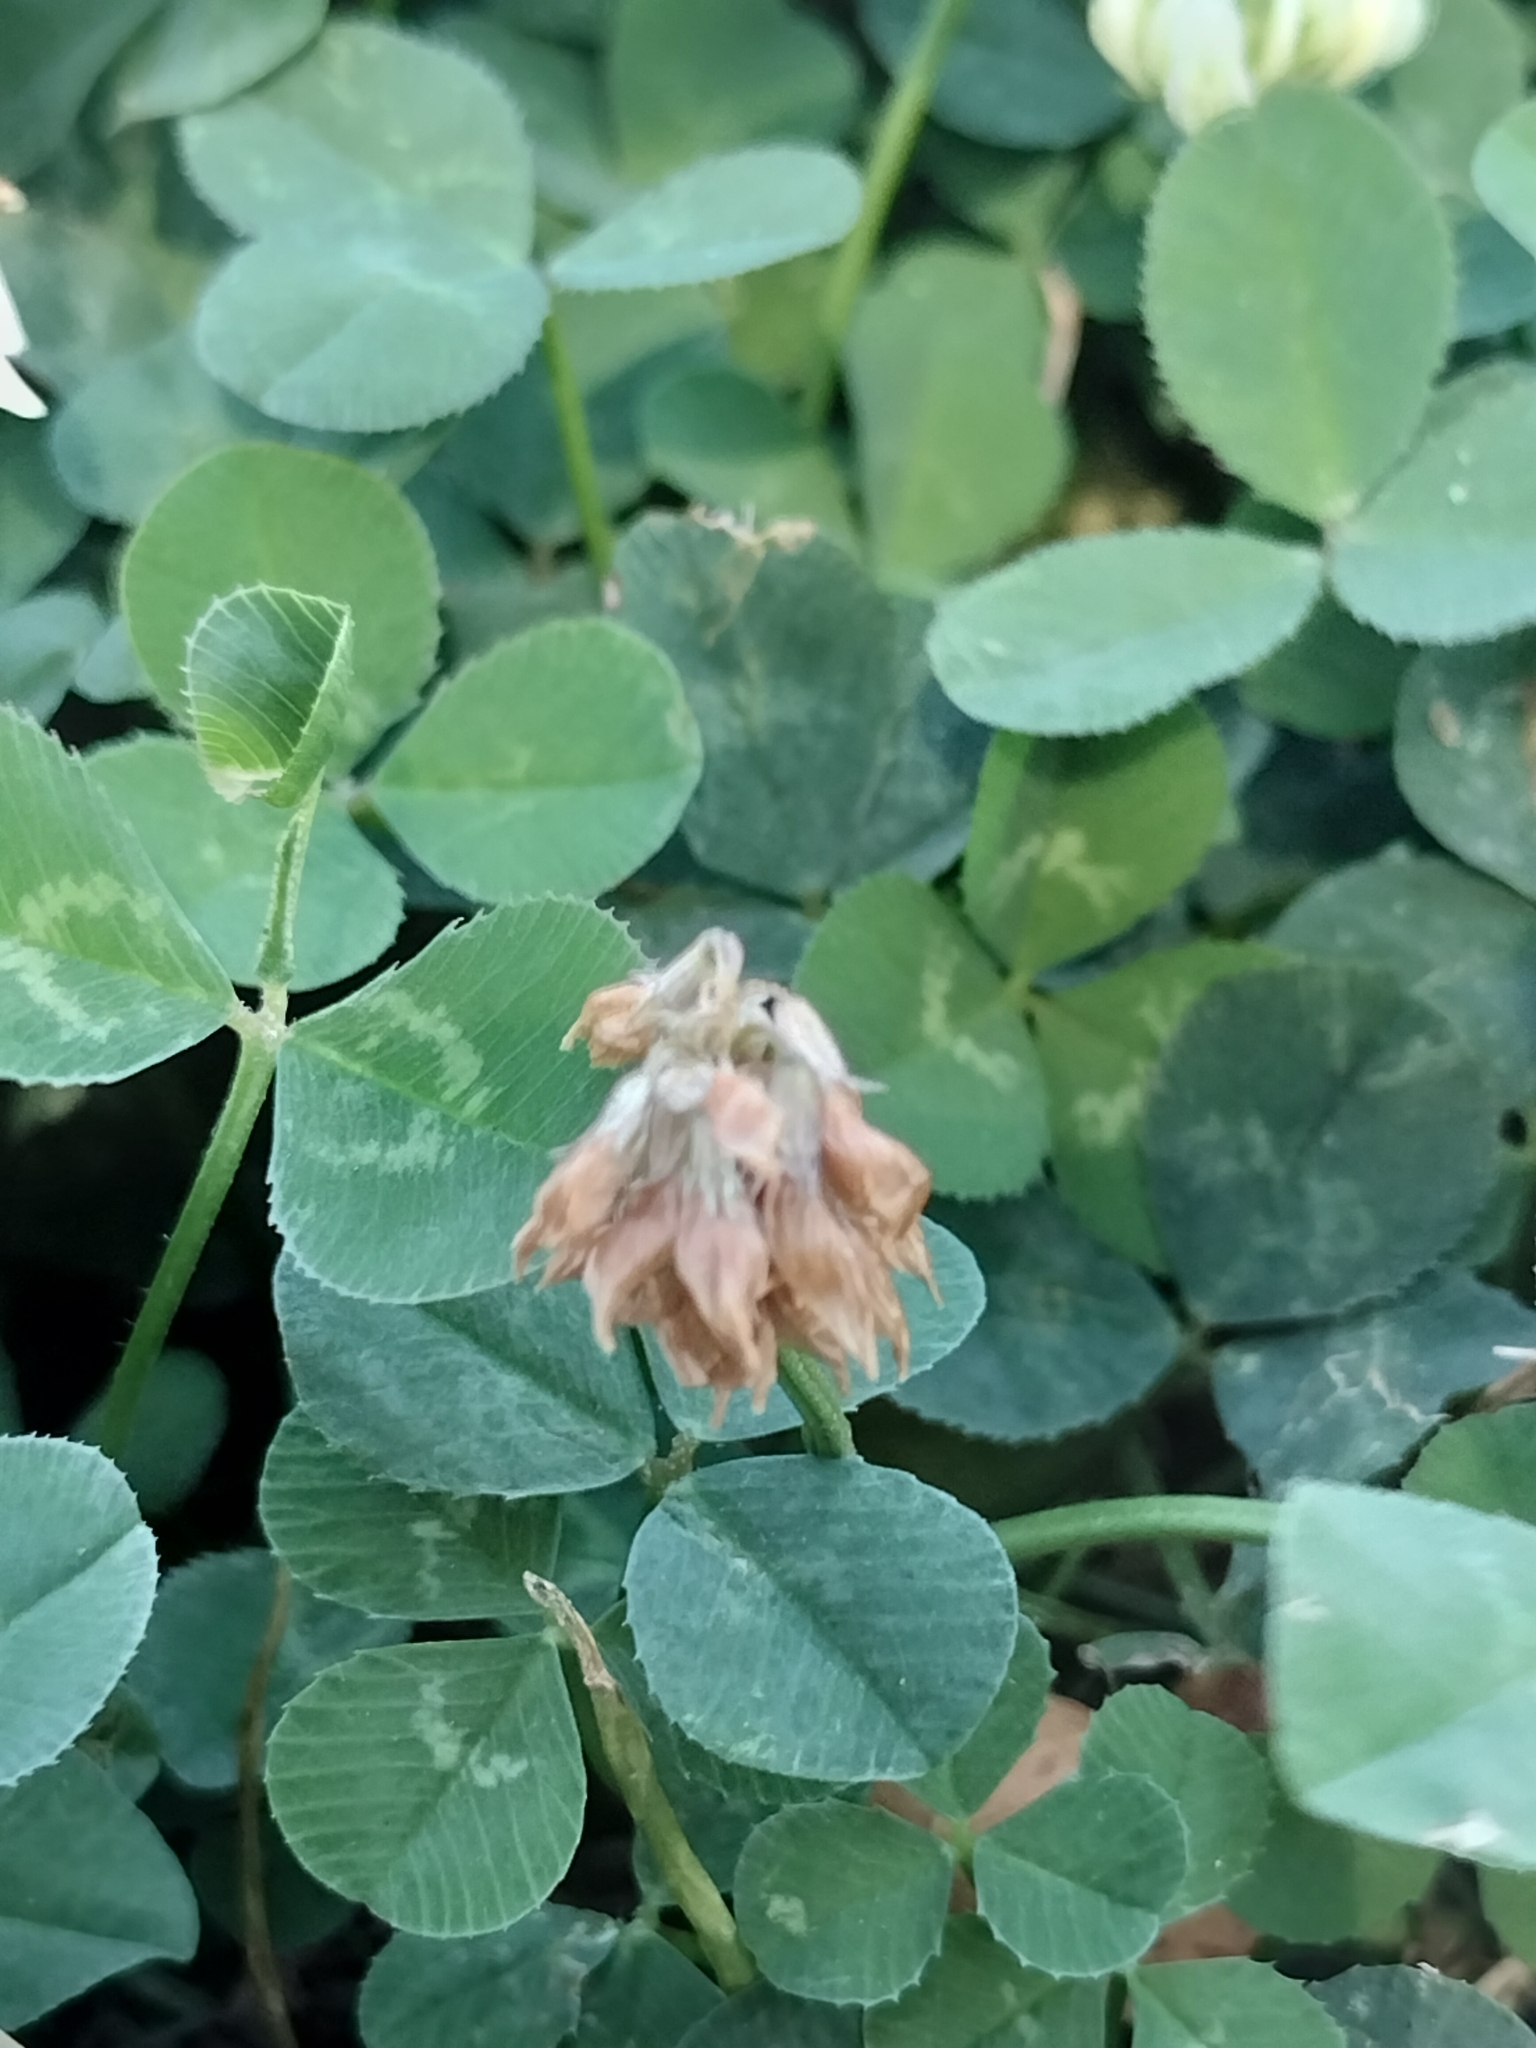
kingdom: Plantae
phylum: Tracheophyta
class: Magnoliopsida
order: Fabales
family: Fabaceae
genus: Trifolium
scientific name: Trifolium repens
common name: White clover
